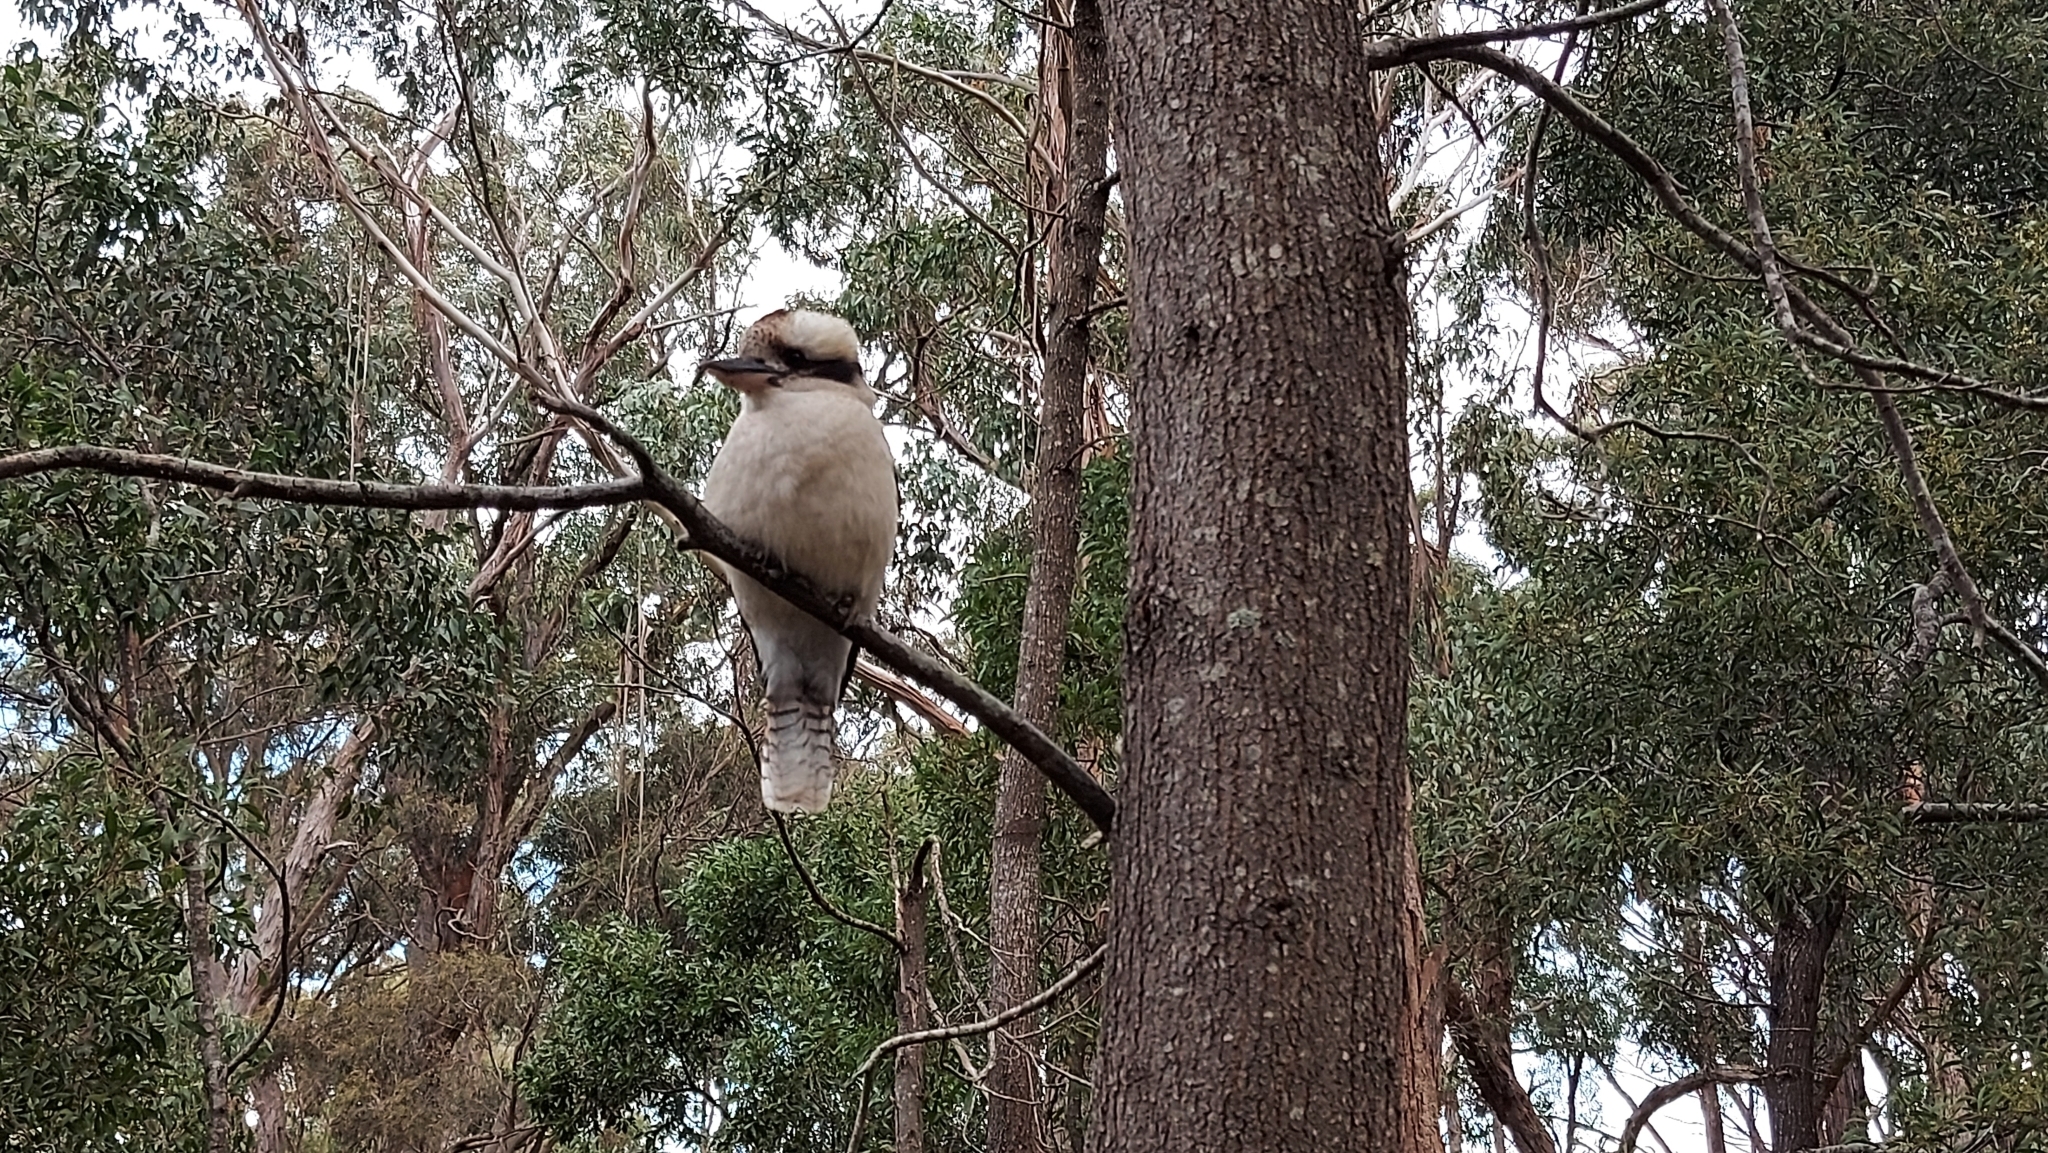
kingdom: Animalia
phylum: Chordata
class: Aves
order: Coraciiformes
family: Alcedinidae
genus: Dacelo
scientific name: Dacelo novaeguineae
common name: Laughing kookaburra
